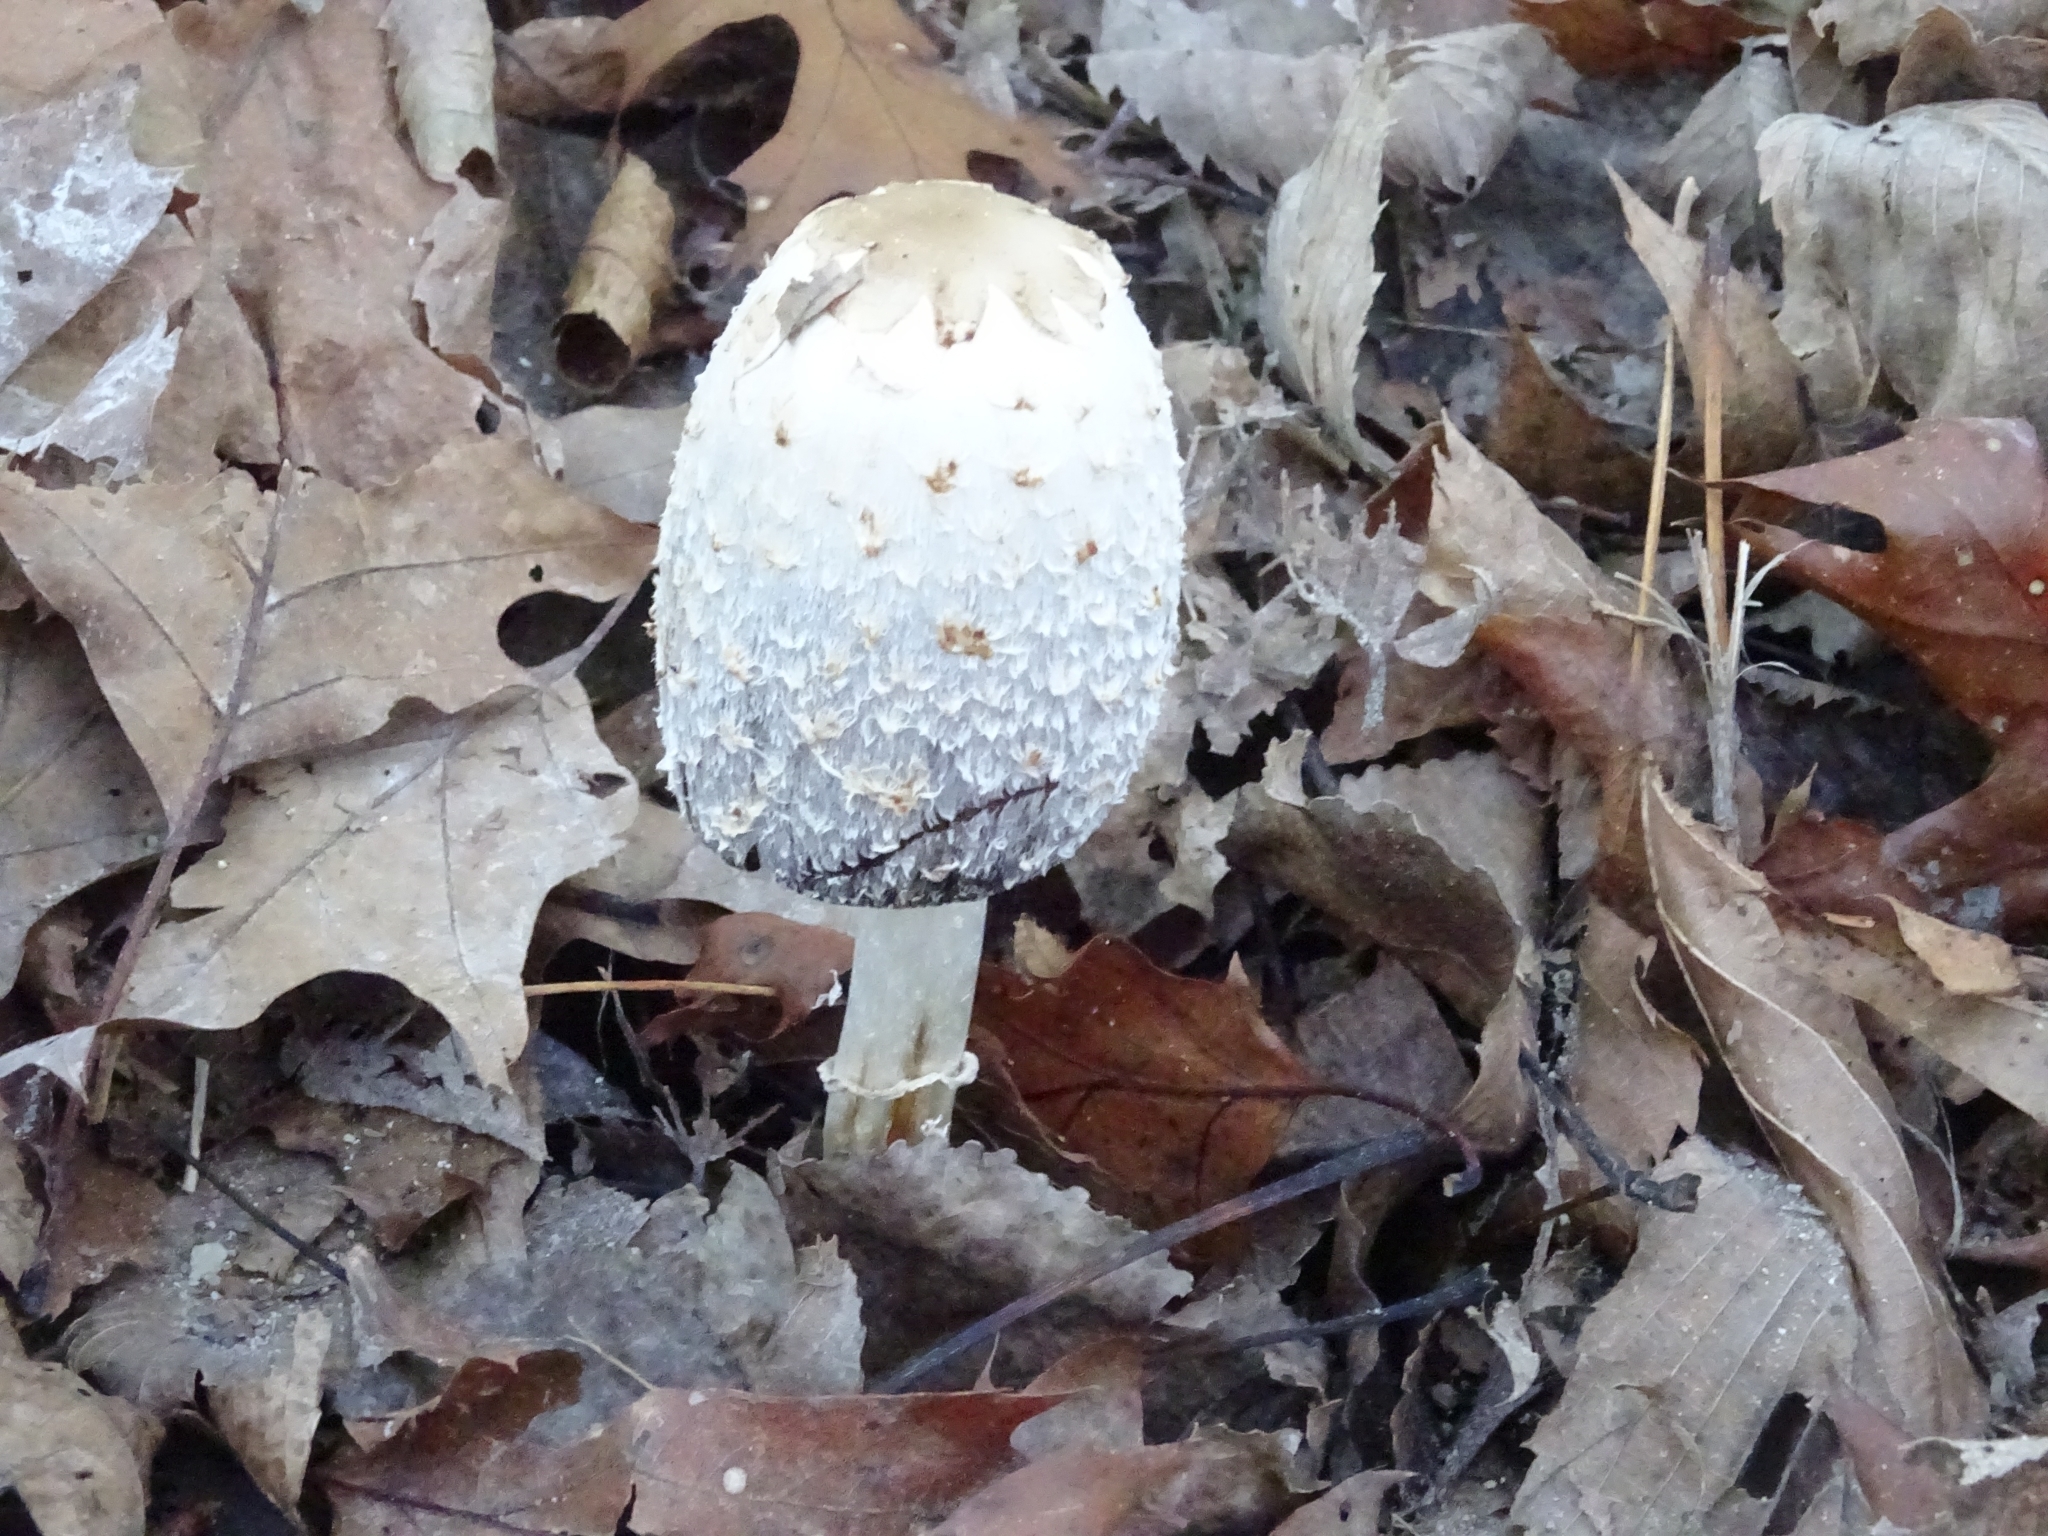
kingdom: Fungi
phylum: Basidiomycota
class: Agaricomycetes
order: Agaricales
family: Agaricaceae
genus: Coprinus
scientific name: Coprinus comatus
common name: Lawyer's wig
